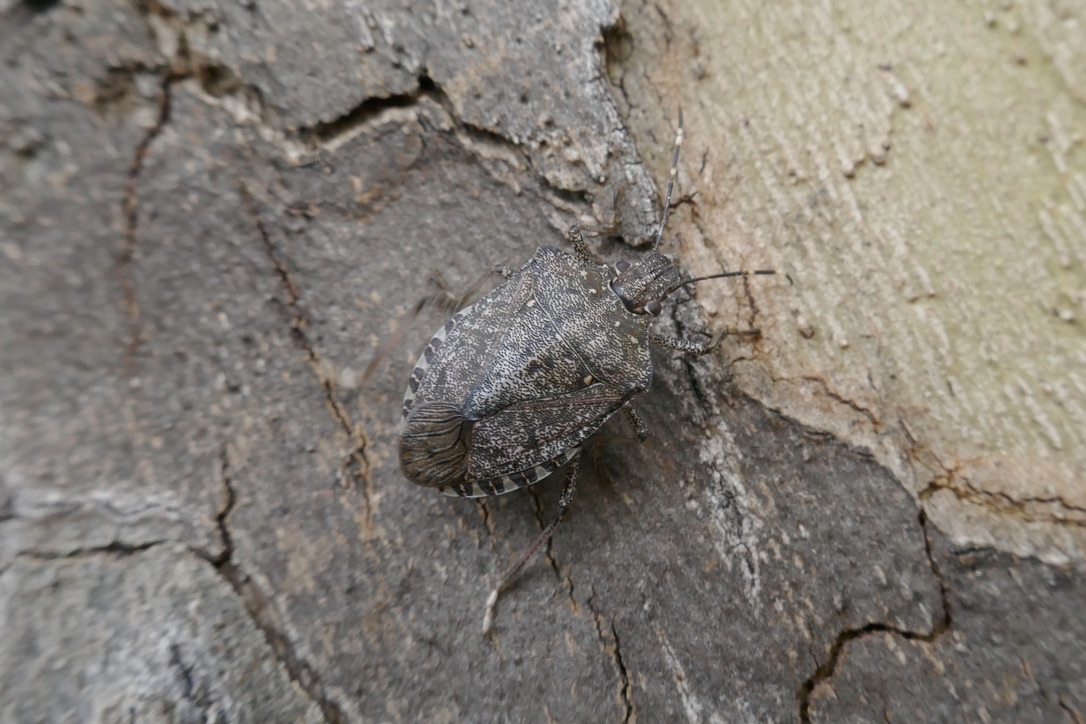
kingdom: Animalia
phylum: Arthropoda
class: Insecta
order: Hemiptera
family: Pentatomidae
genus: Halyomorpha
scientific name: Halyomorpha halys
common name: Brown marmorated stink bug
